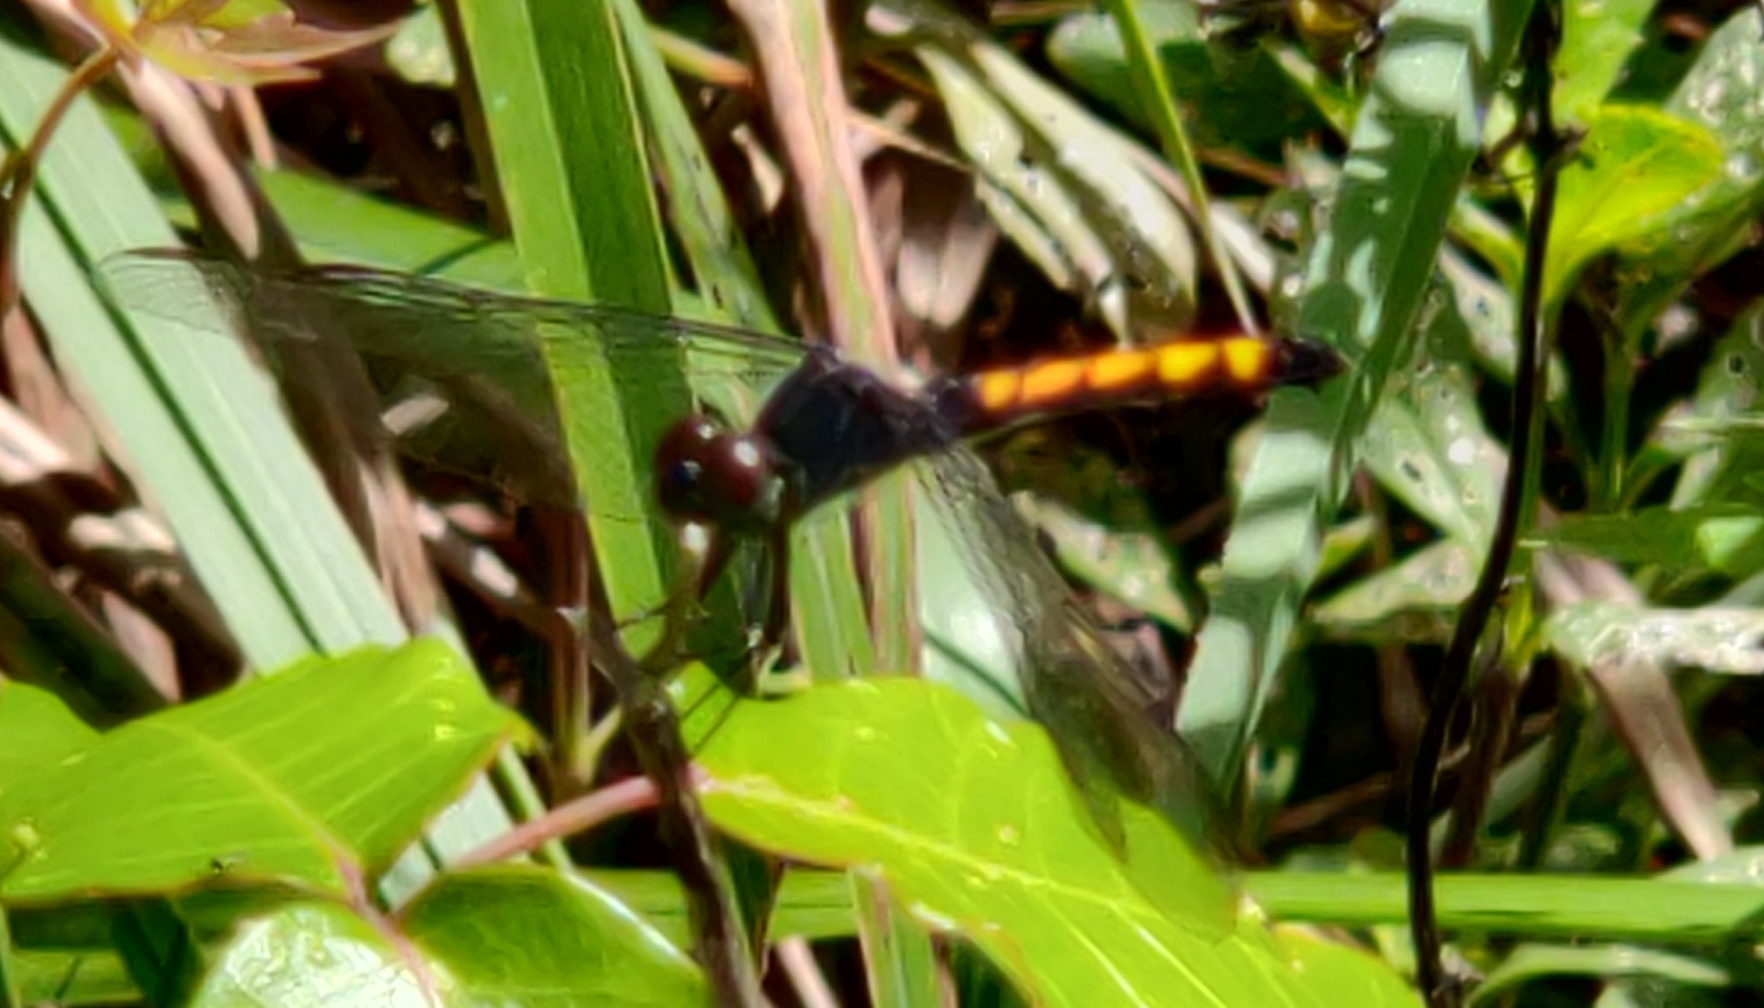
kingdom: Animalia
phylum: Arthropoda
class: Insecta
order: Odonata
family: Libellulidae
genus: Erythrodiplax
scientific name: Erythrodiplax berenice
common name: Seaside dragonlet
